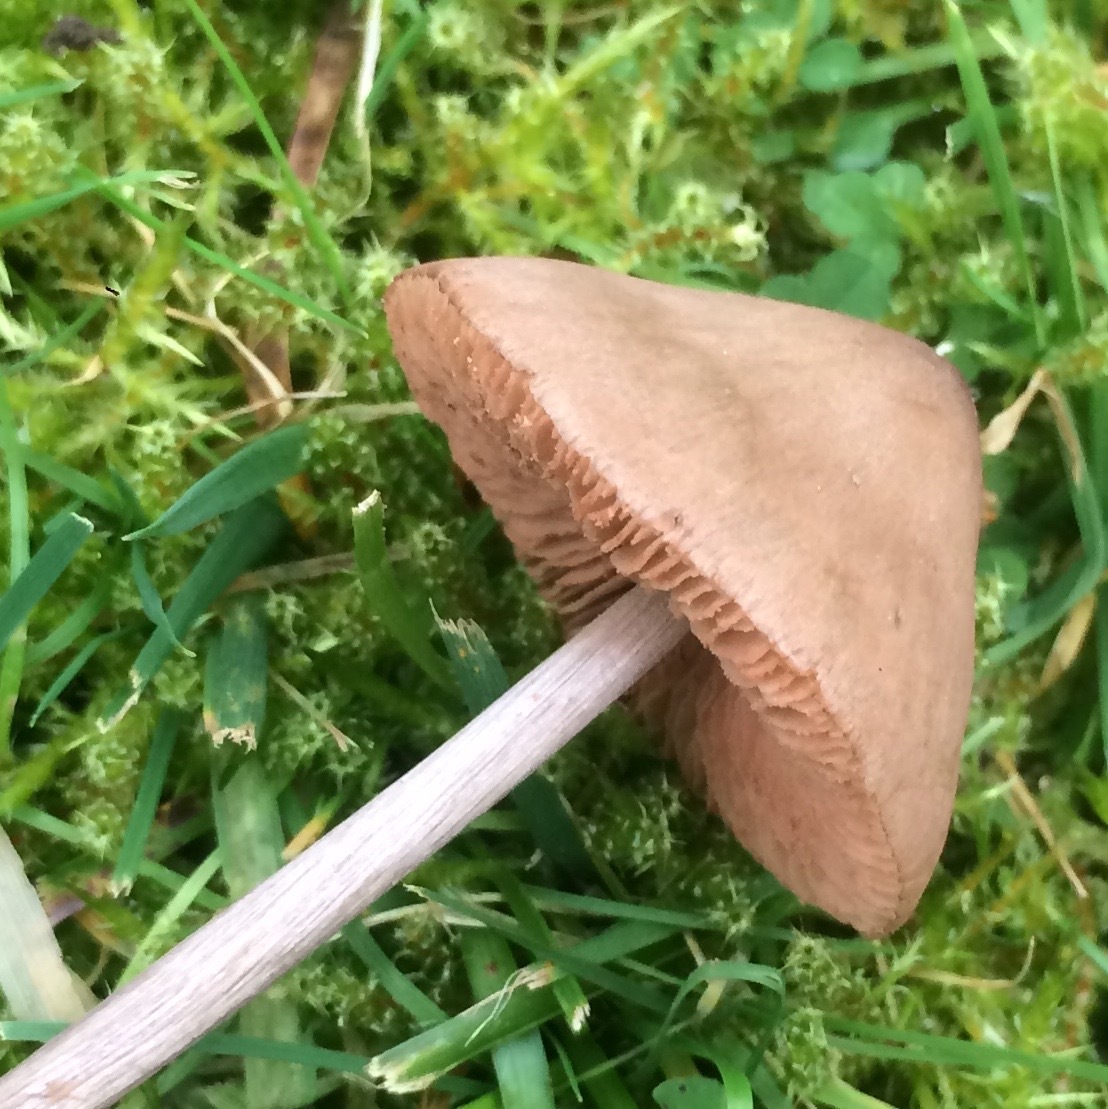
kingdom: Fungi
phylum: Basidiomycota
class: Agaricomycetes
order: Agaricales
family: Entolomataceae
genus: Entoloma
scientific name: Entoloma conferendum
